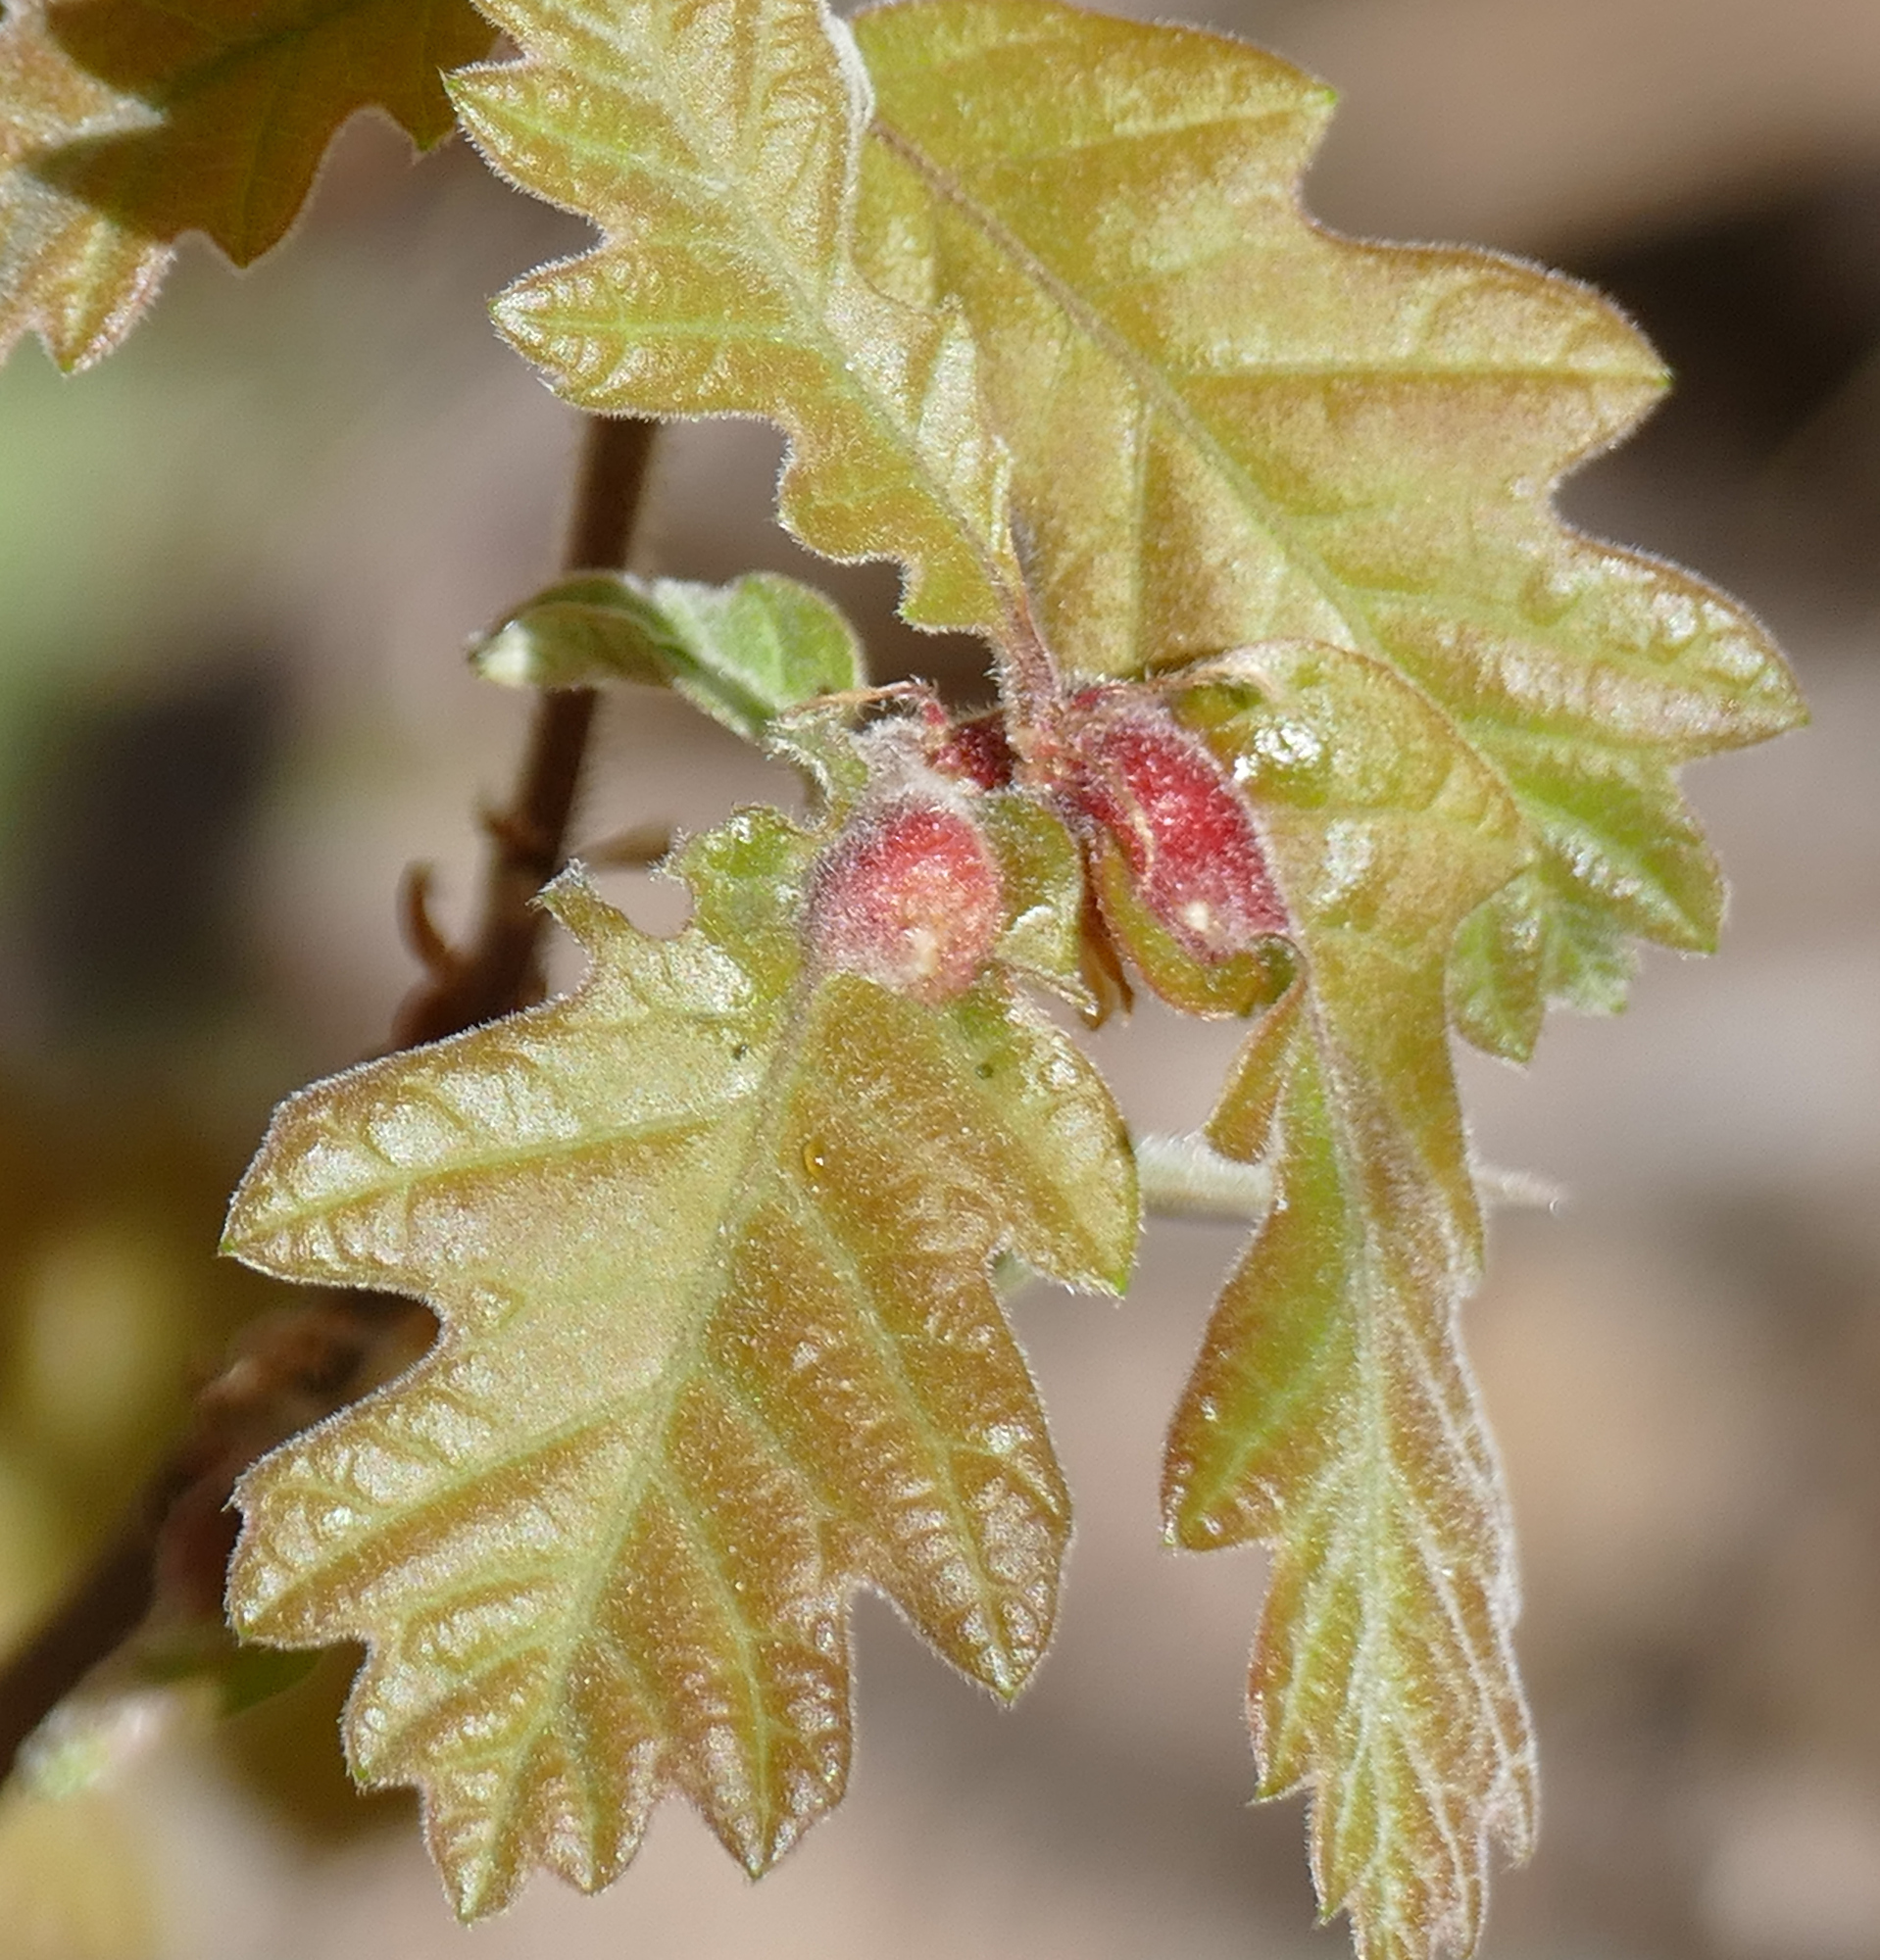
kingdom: Animalia
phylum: Arthropoda
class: Insecta
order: Hymenoptera
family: Cynipidae
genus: Andricus
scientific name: Andricus
